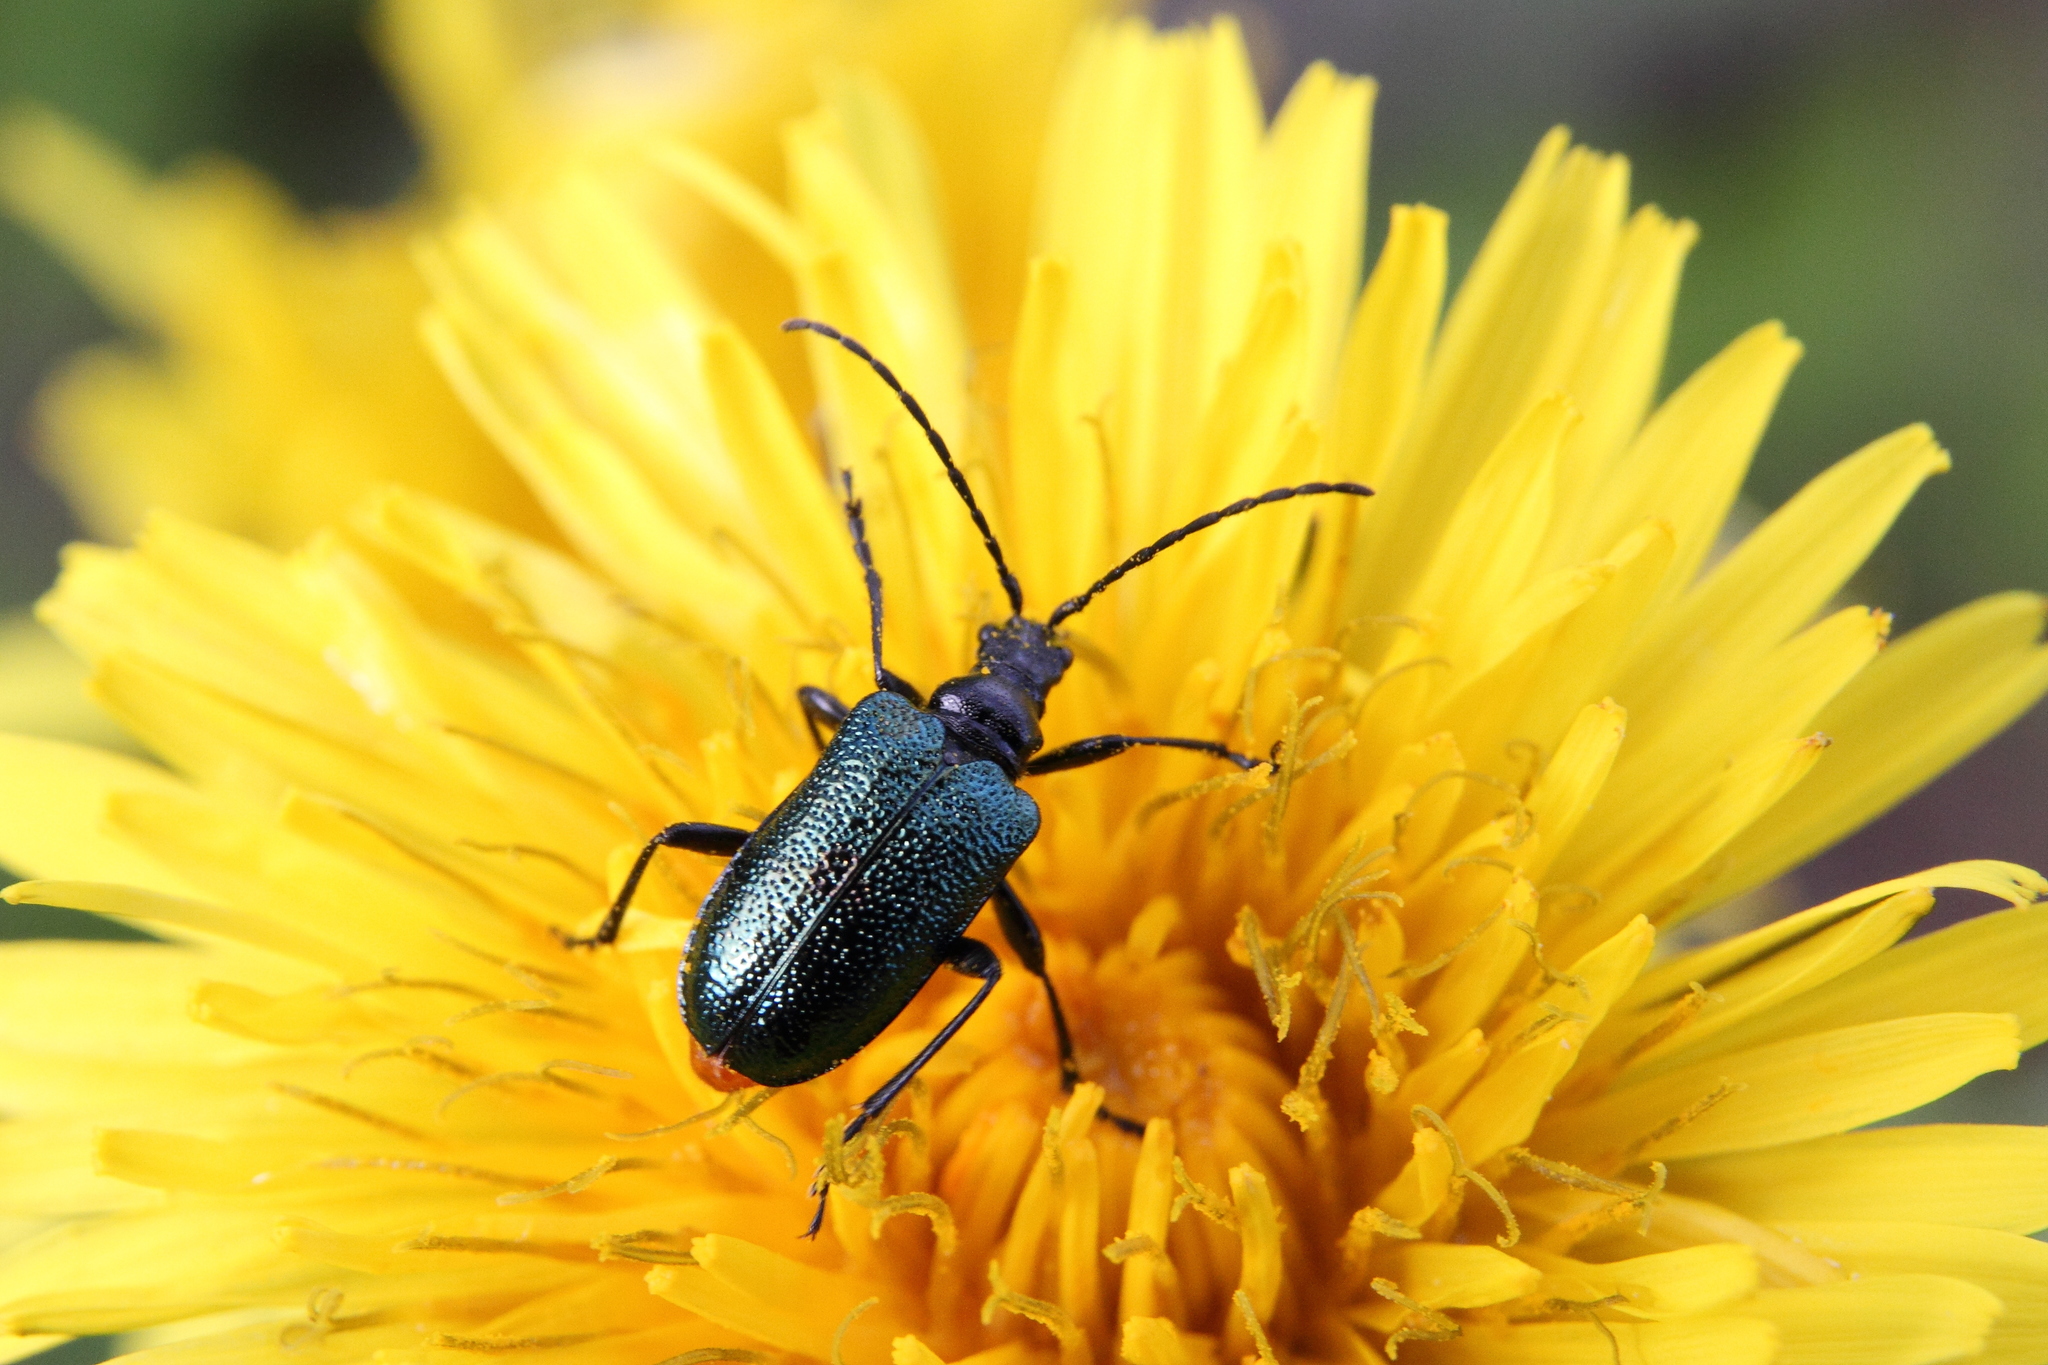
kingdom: Animalia
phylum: Arthropoda
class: Insecta
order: Coleoptera
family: Cerambycidae
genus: Gaurotes
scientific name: Gaurotes virginea
